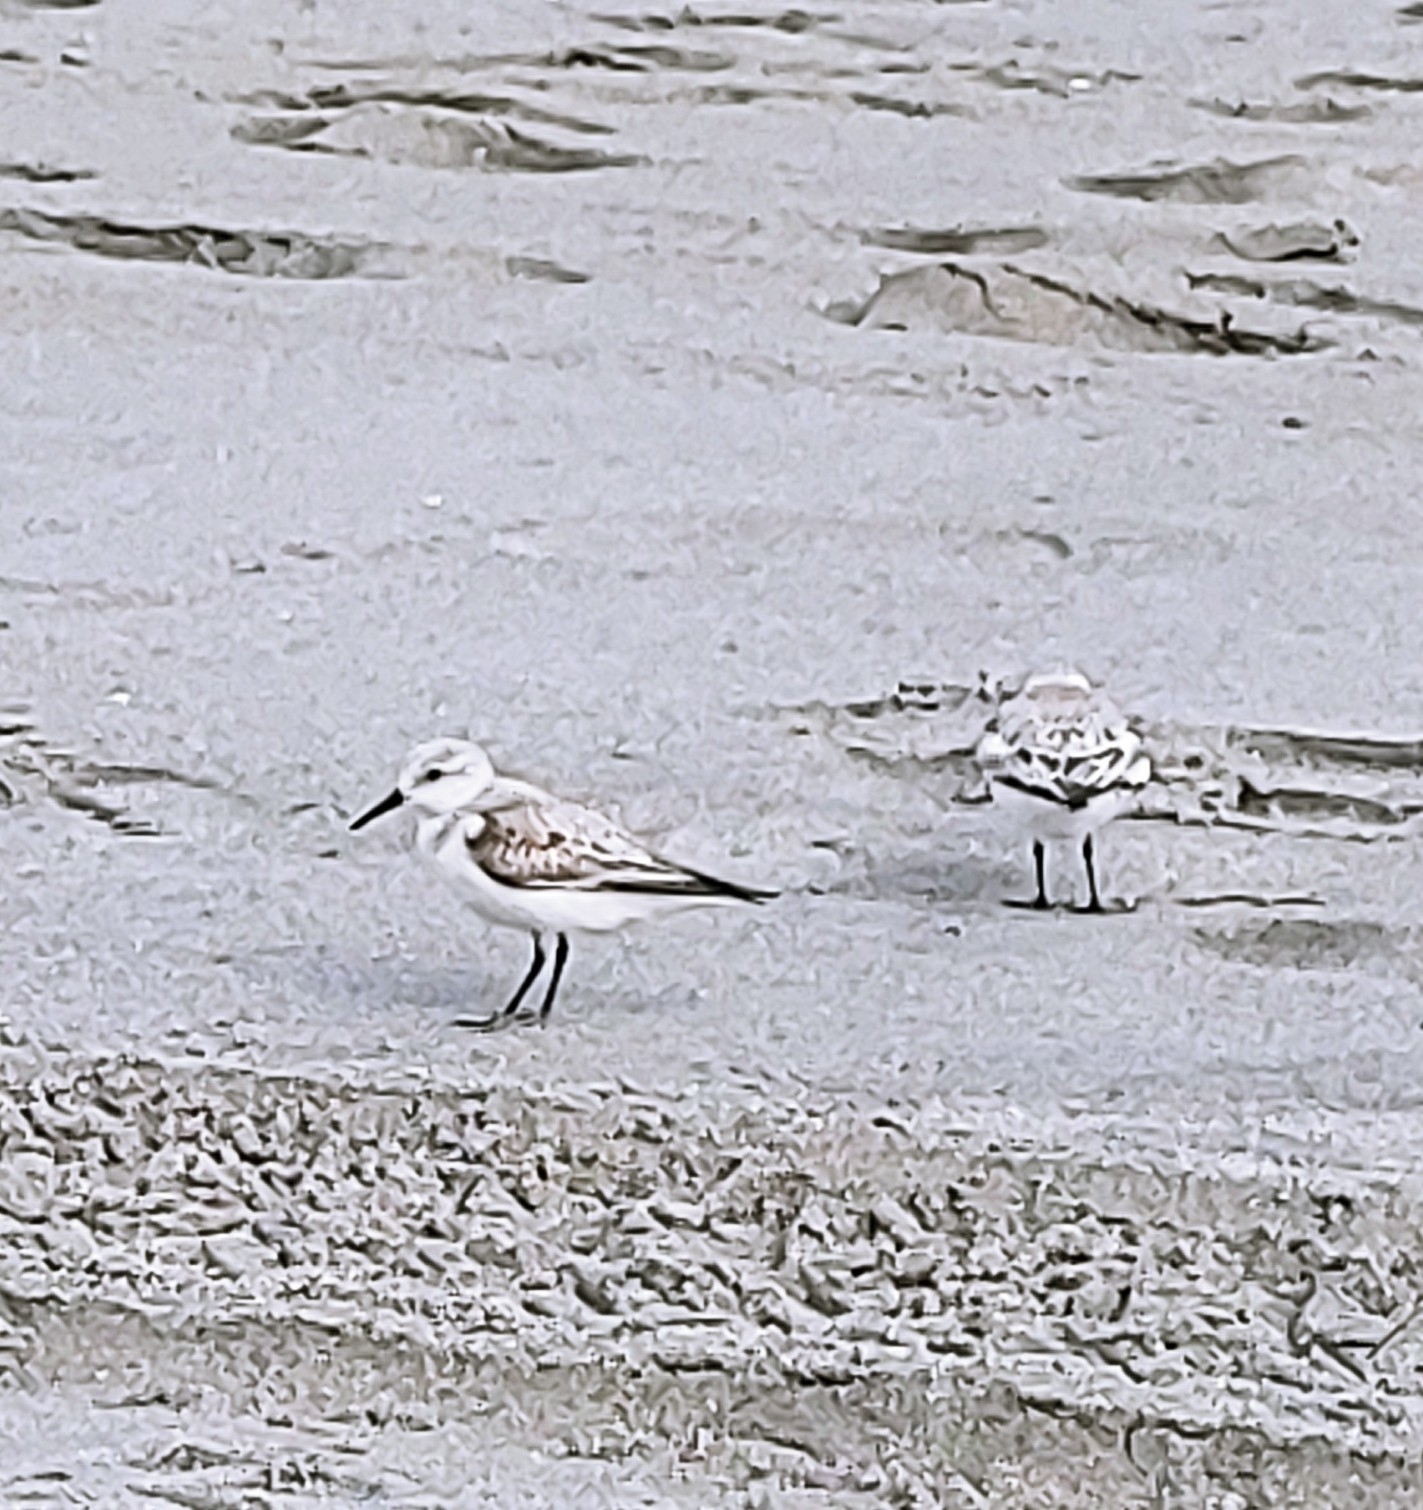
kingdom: Animalia
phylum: Chordata
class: Aves
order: Charadriiformes
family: Scolopacidae
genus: Calidris
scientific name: Calidris alba
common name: Sanderling
